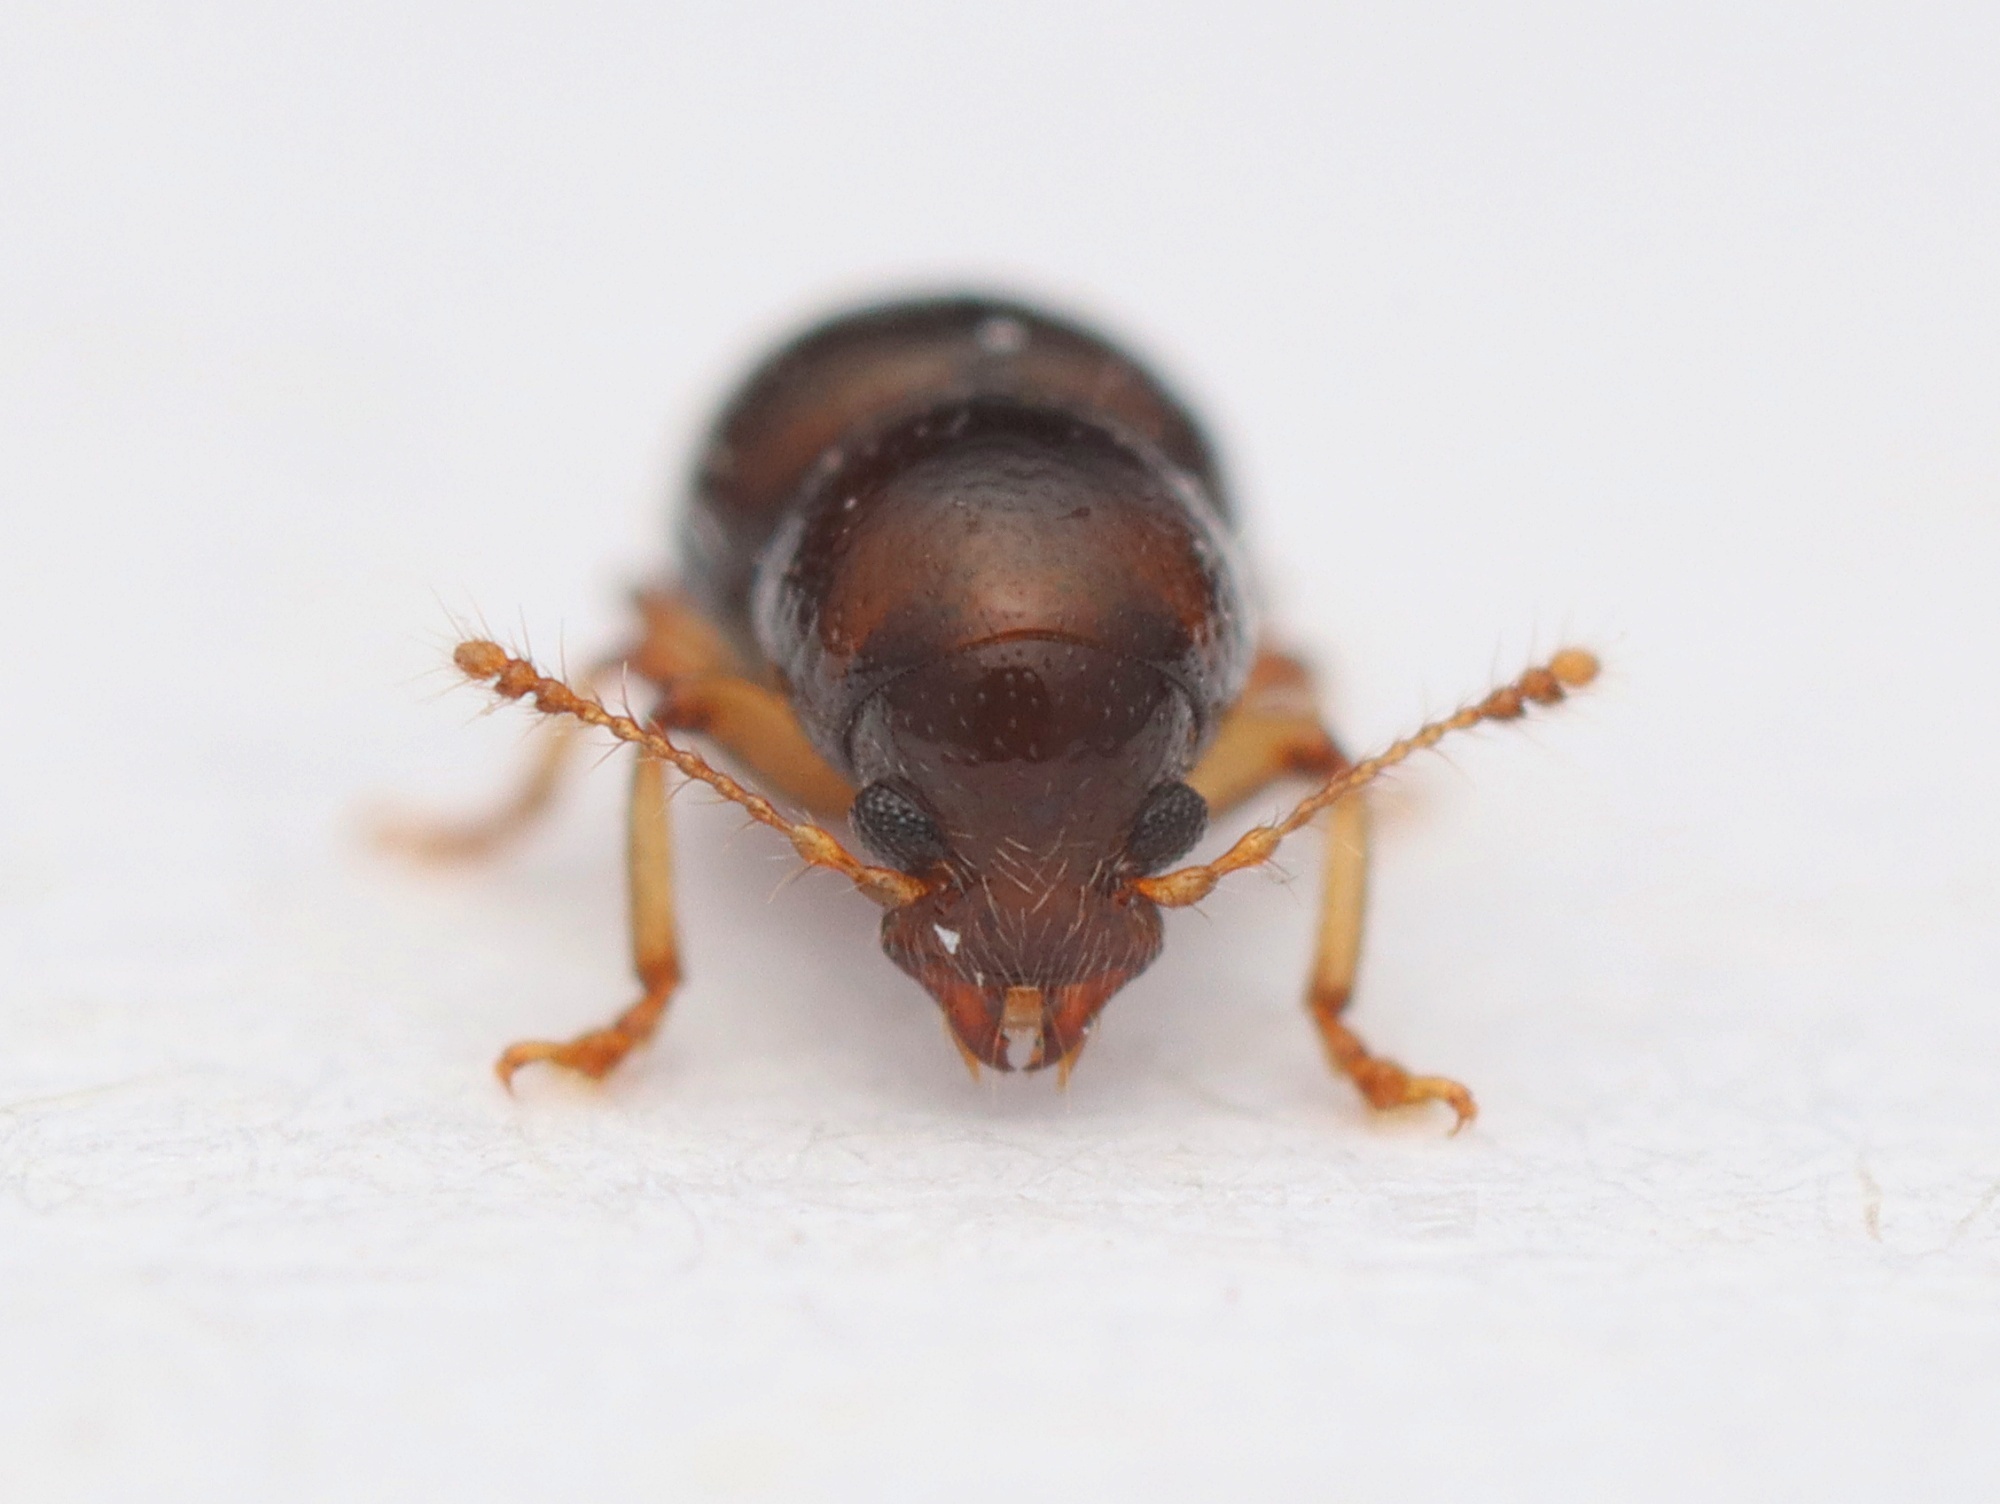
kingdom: Animalia
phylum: Arthropoda
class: Insecta
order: Coleoptera
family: Anthribidae
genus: Dysnocryptus
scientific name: Dysnocryptus inflatus
